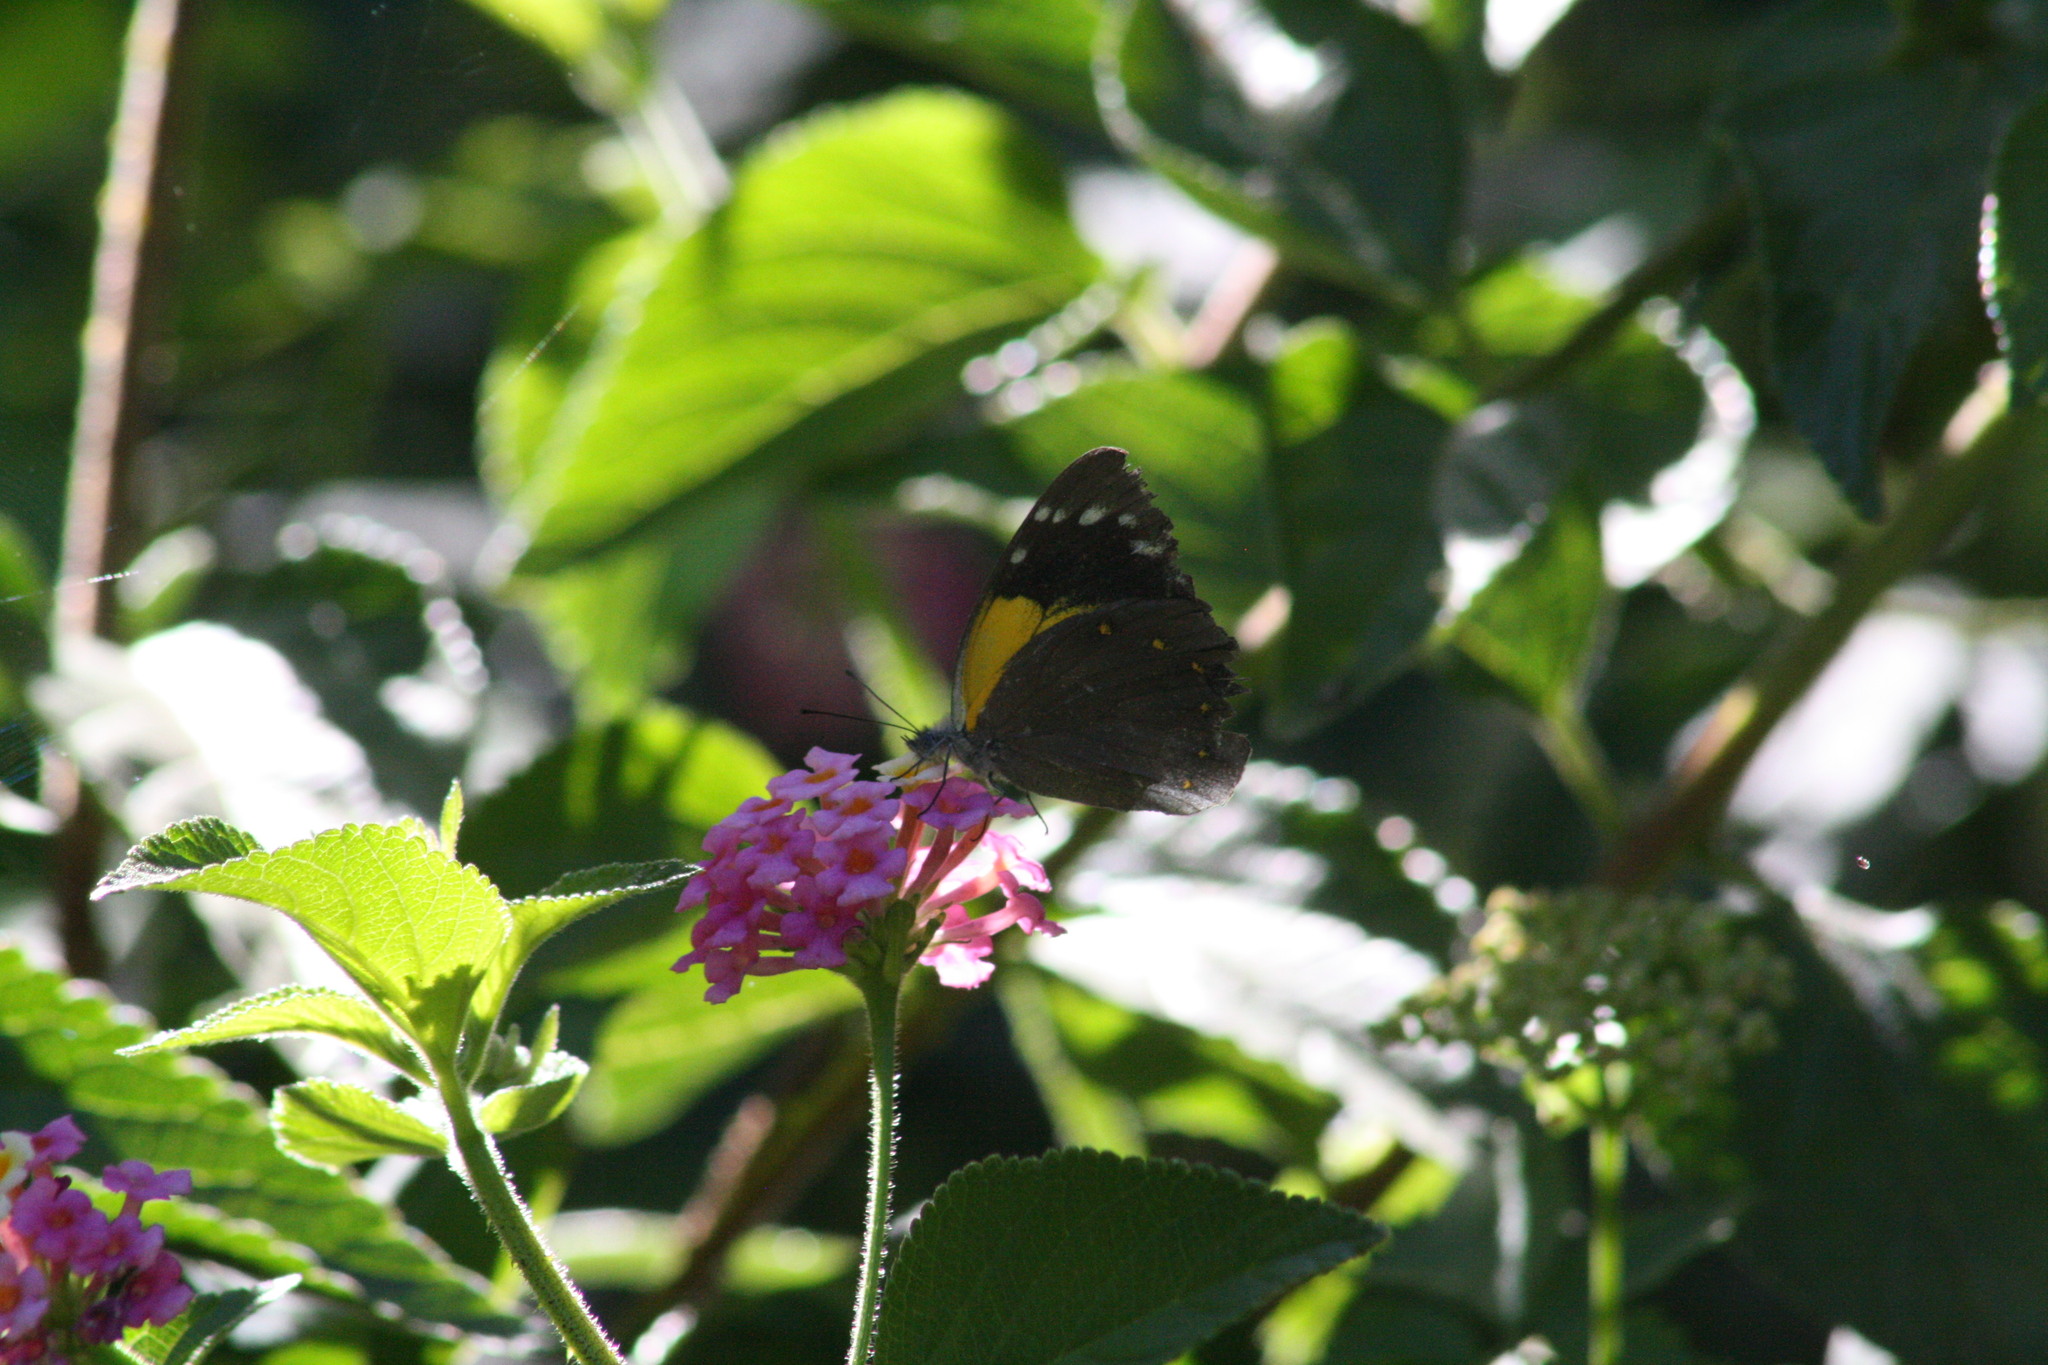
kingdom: Animalia
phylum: Arthropoda
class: Insecta
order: Lepidoptera
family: Pieridae
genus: Delias
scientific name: Delias nysa
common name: Yellow-spotted jezebel
